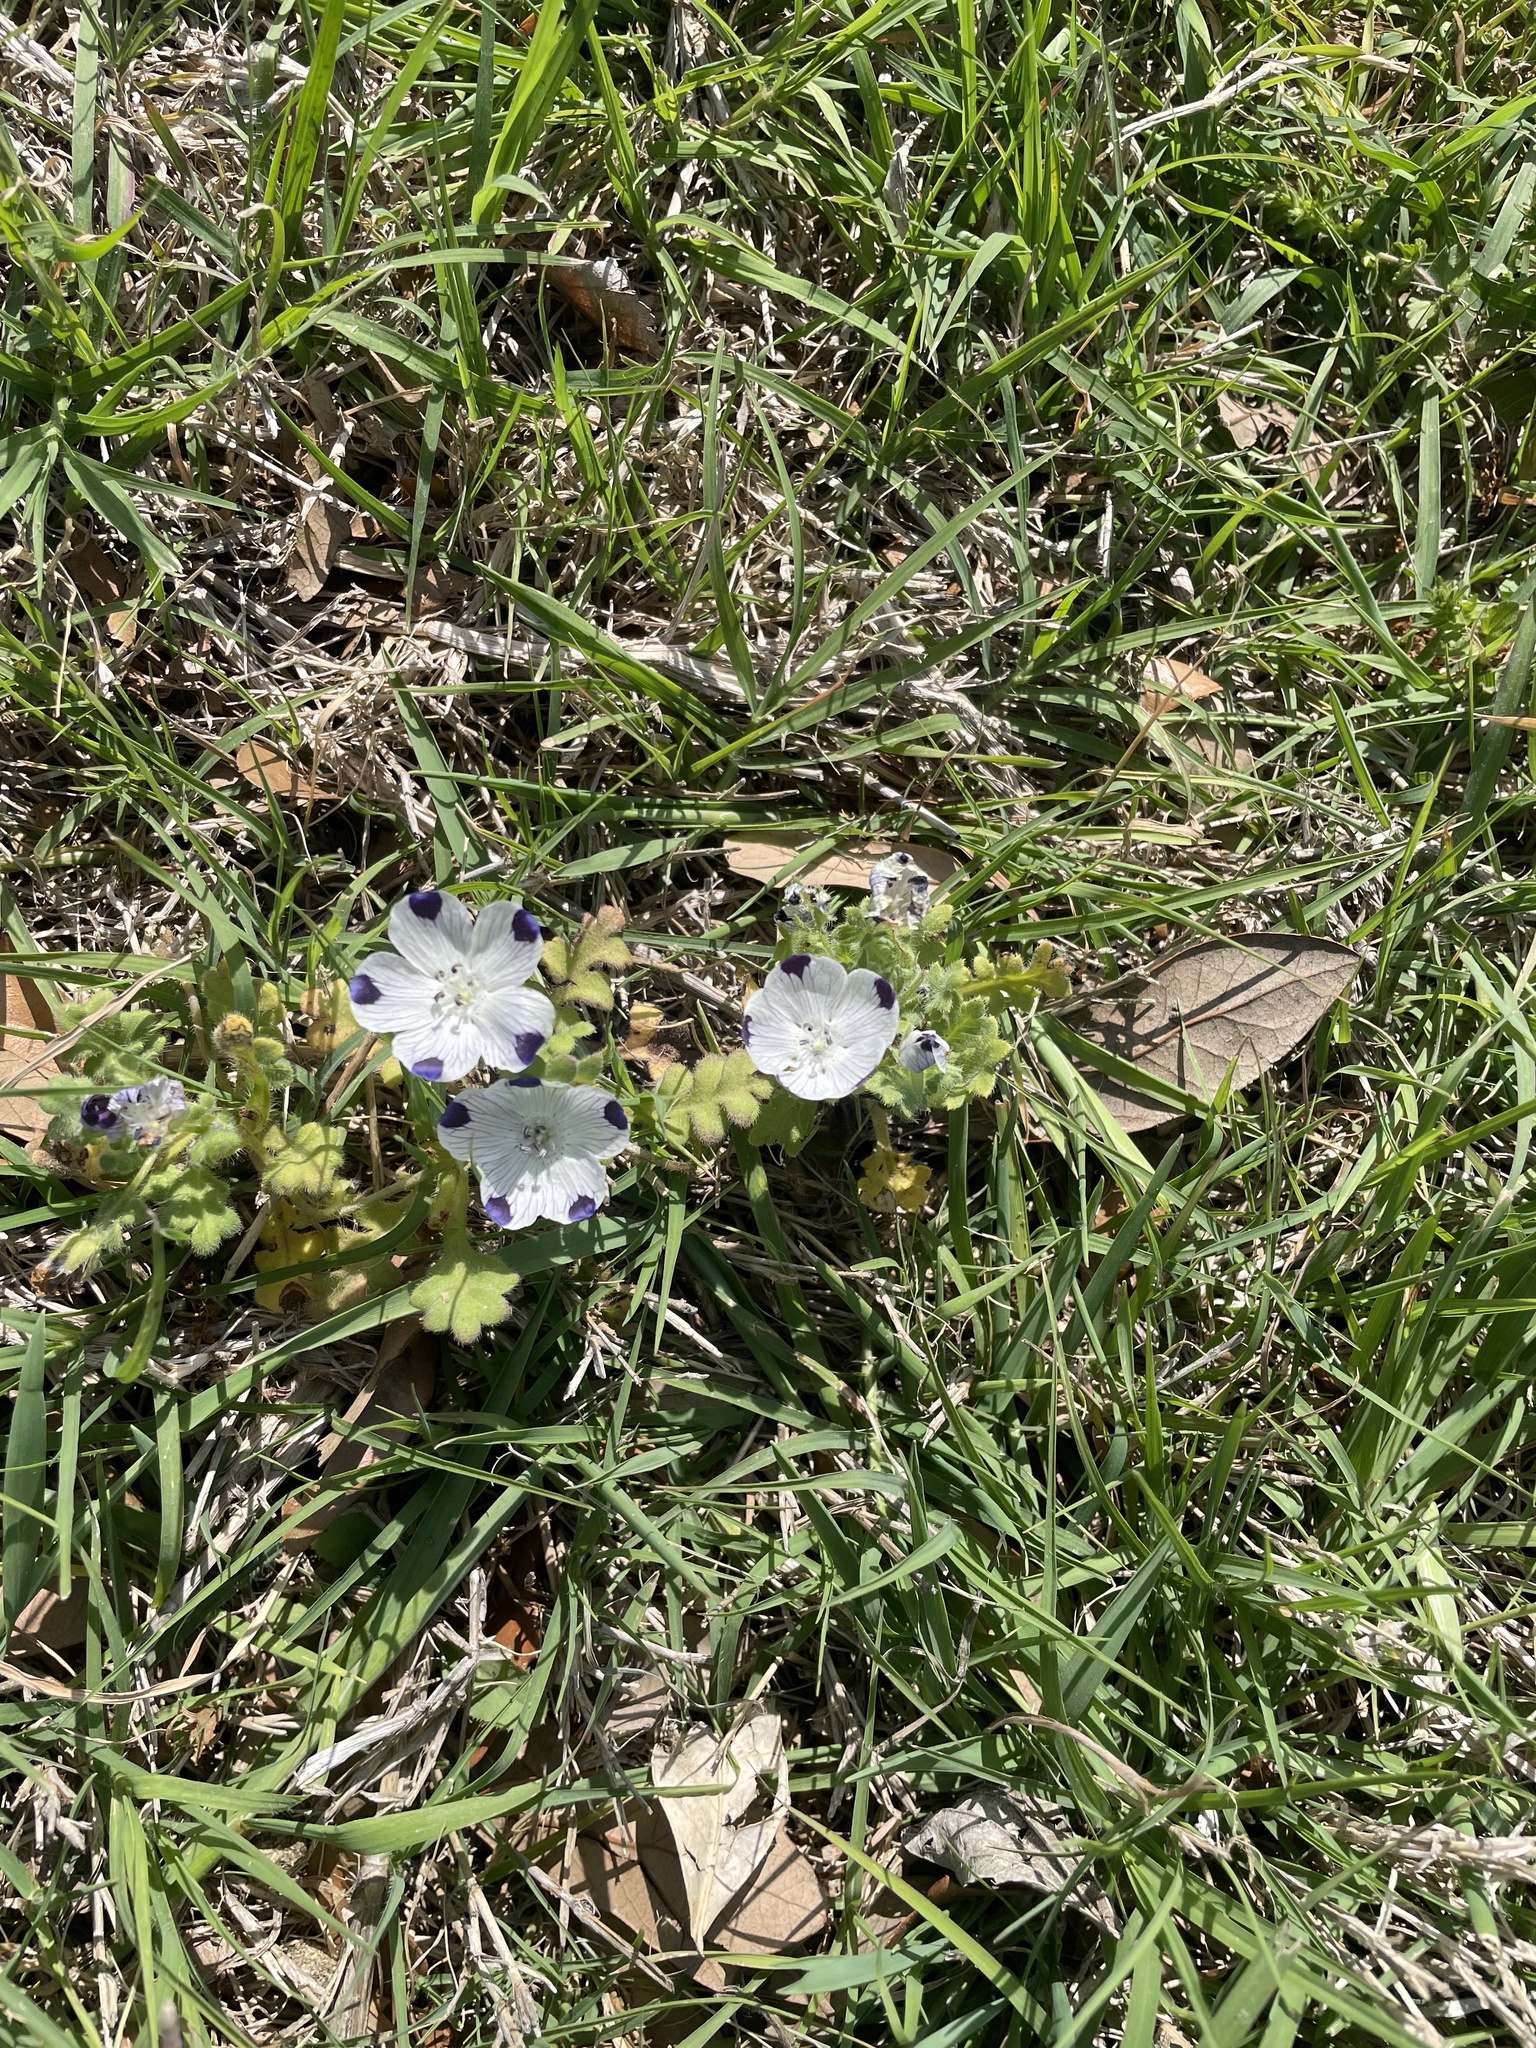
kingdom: Plantae
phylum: Tracheophyta
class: Magnoliopsida
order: Boraginales
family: Hydrophyllaceae
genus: Nemophila
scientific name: Nemophila maculata
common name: Fivespot
